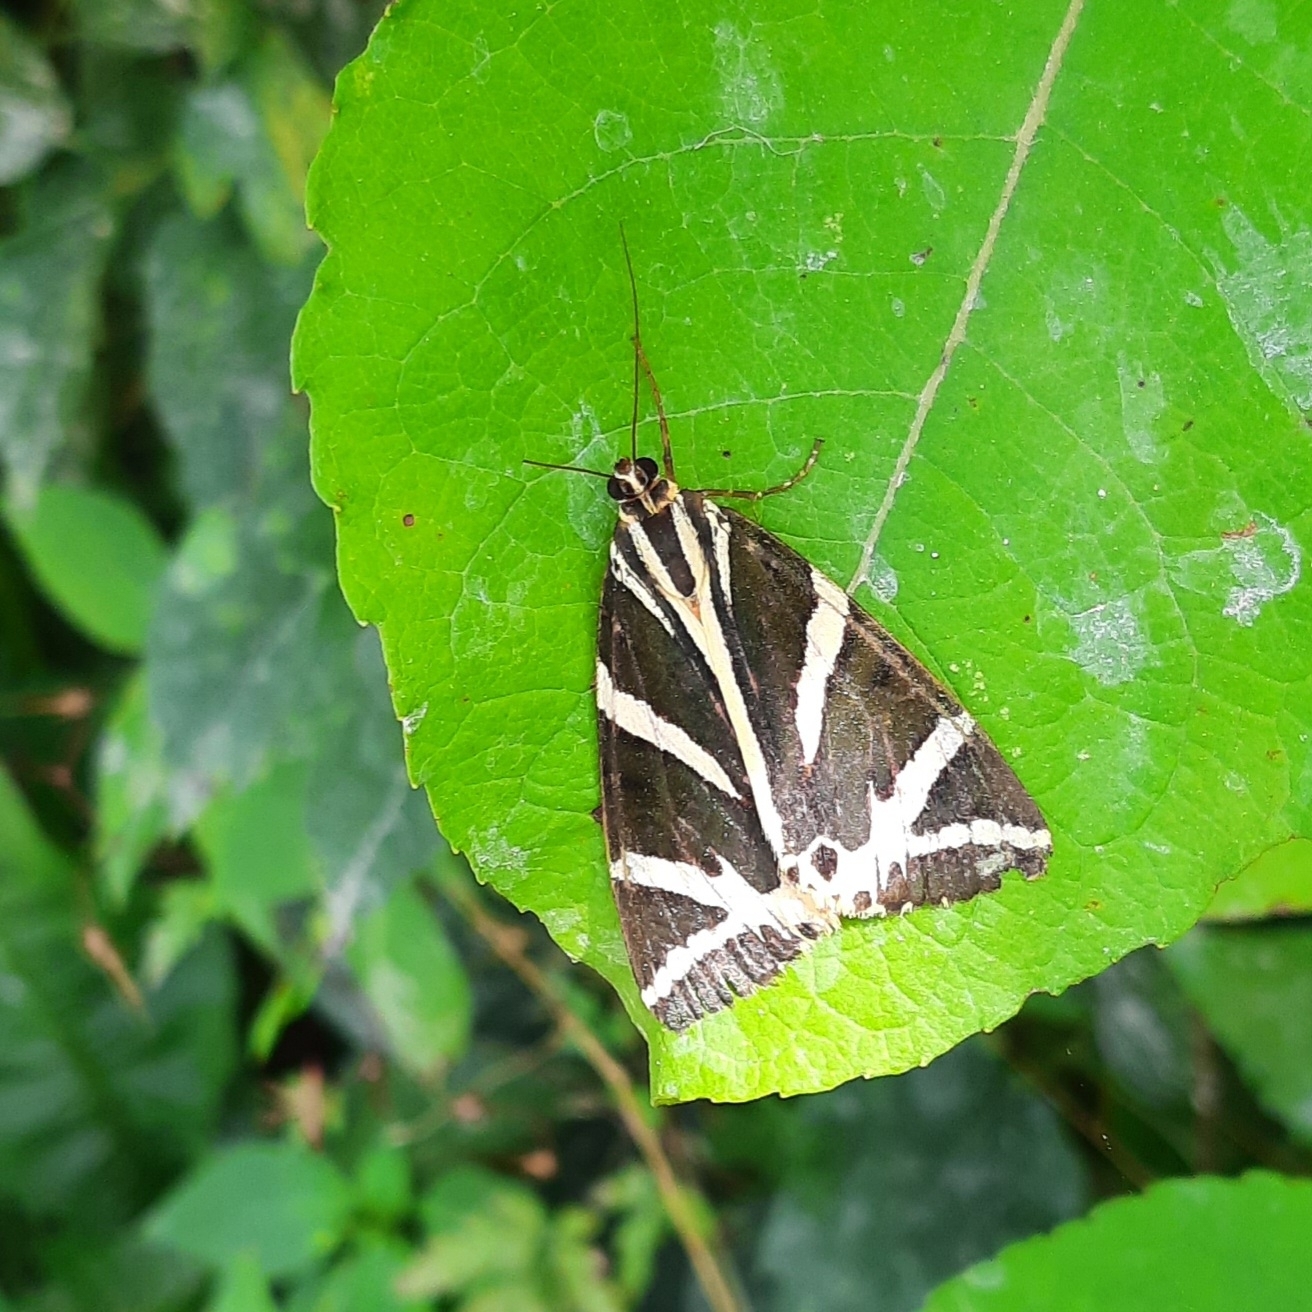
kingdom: Animalia
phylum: Arthropoda
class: Insecta
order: Lepidoptera
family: Erebidae
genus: Euplagia
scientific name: Euplagia quadripunctaria
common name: Jersey tiger
